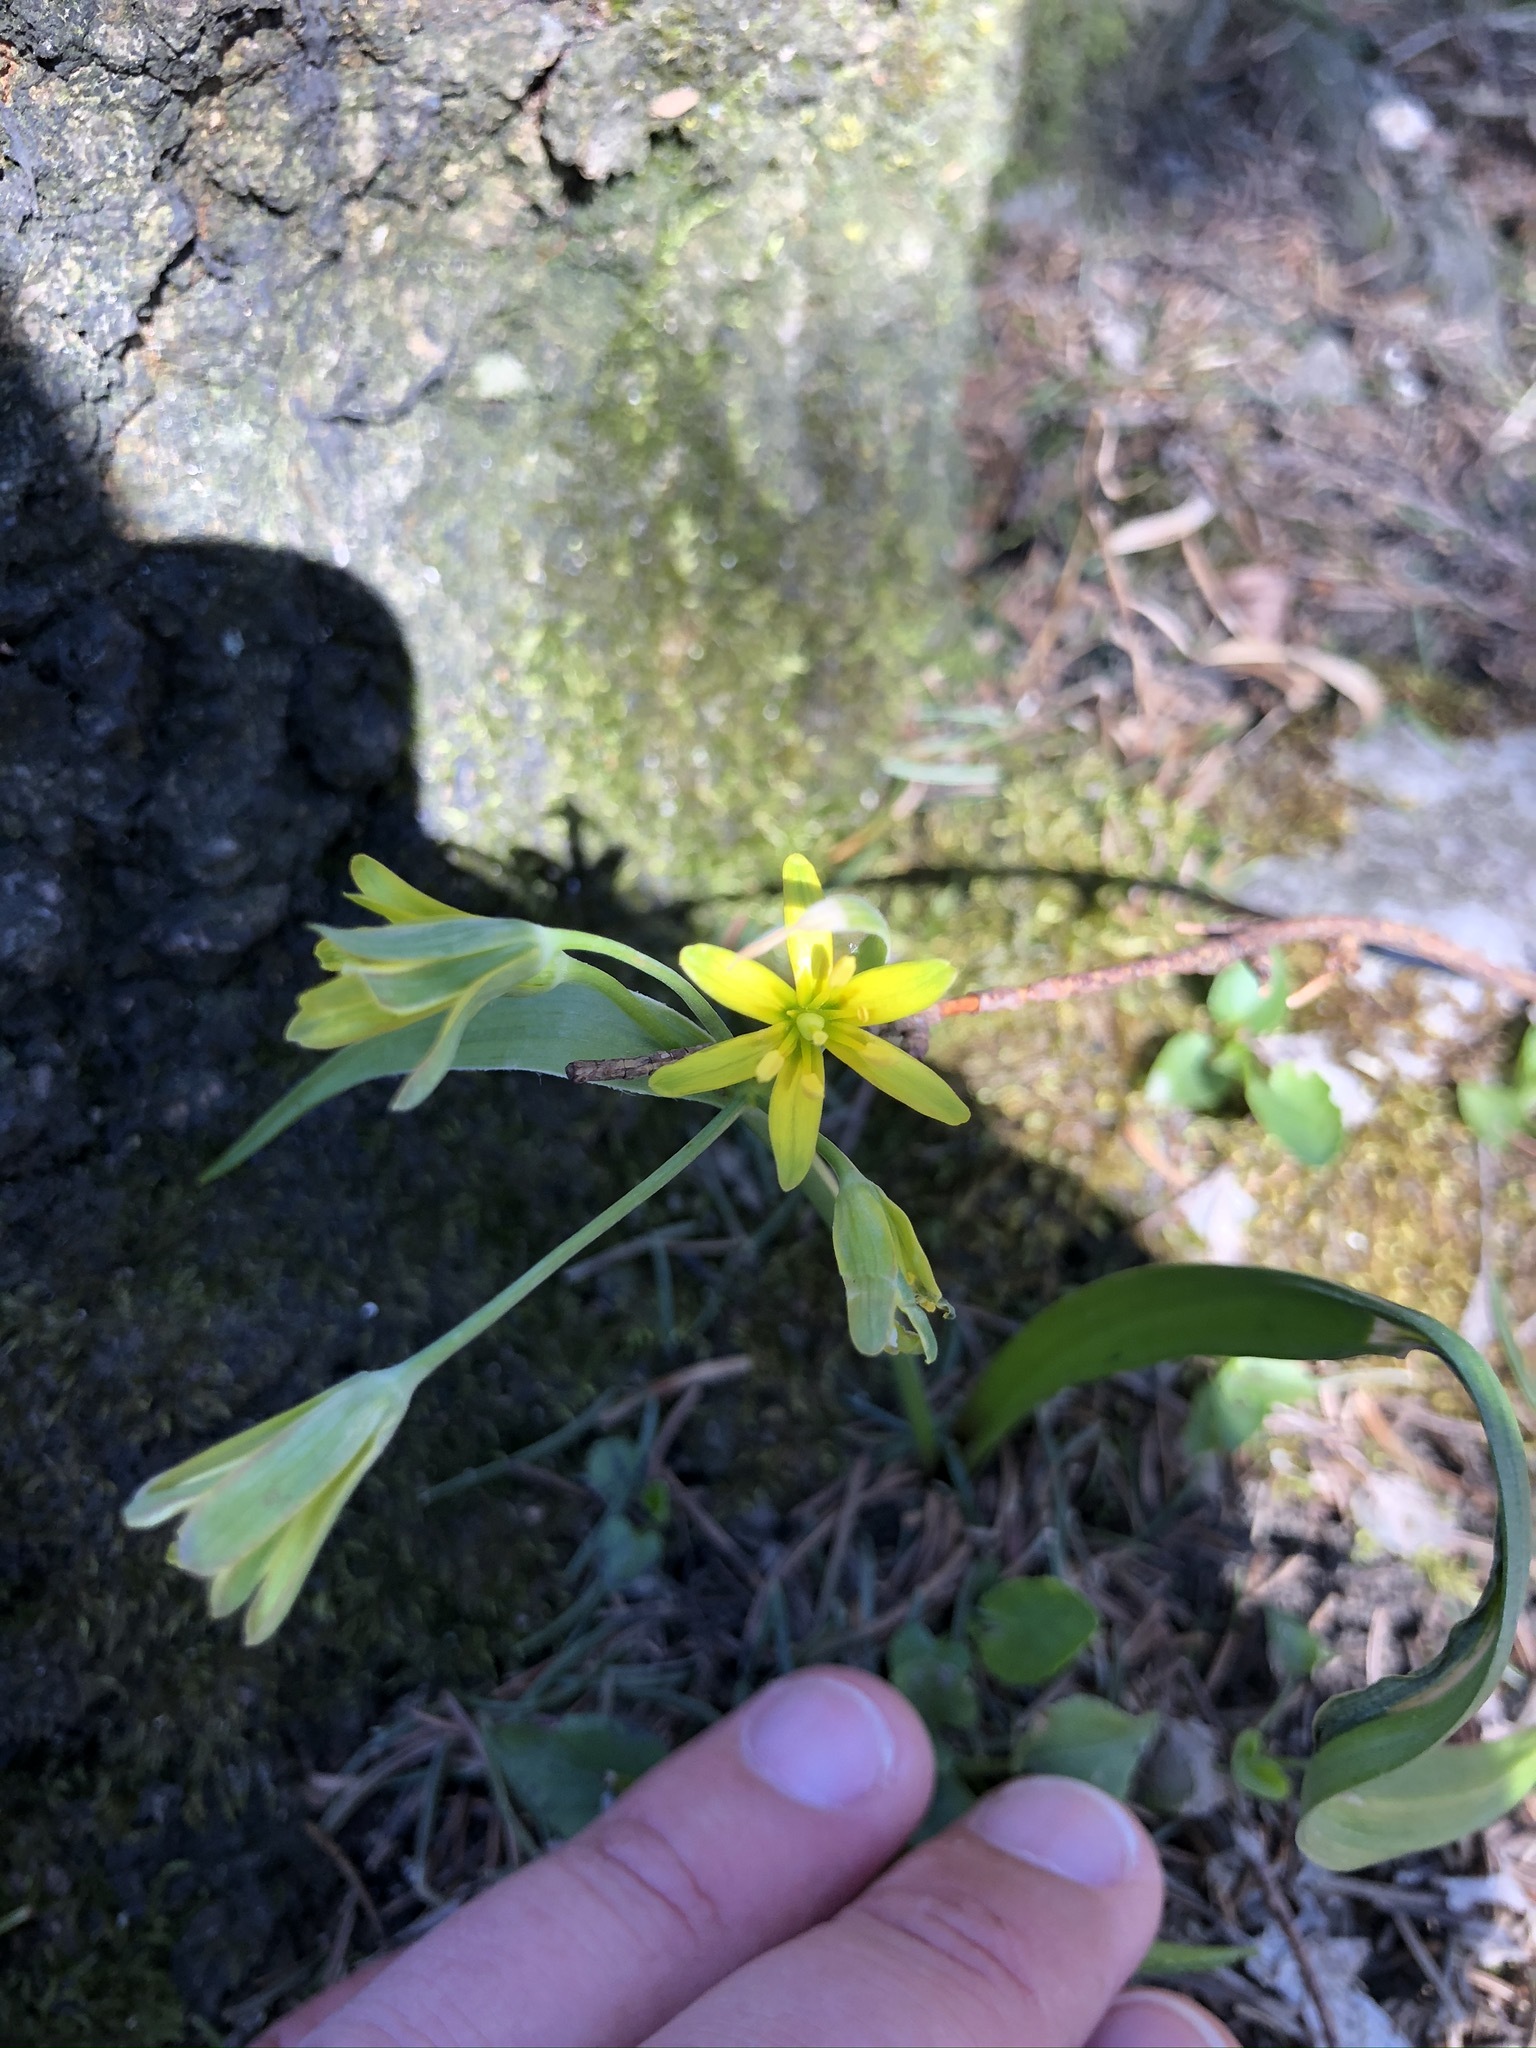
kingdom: Plantae
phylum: Tracheophyta
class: Liliopsida
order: Liliales
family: Liliaceae
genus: Gagea
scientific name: Gagea lutea
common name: Yellow star-of-bethlehem
